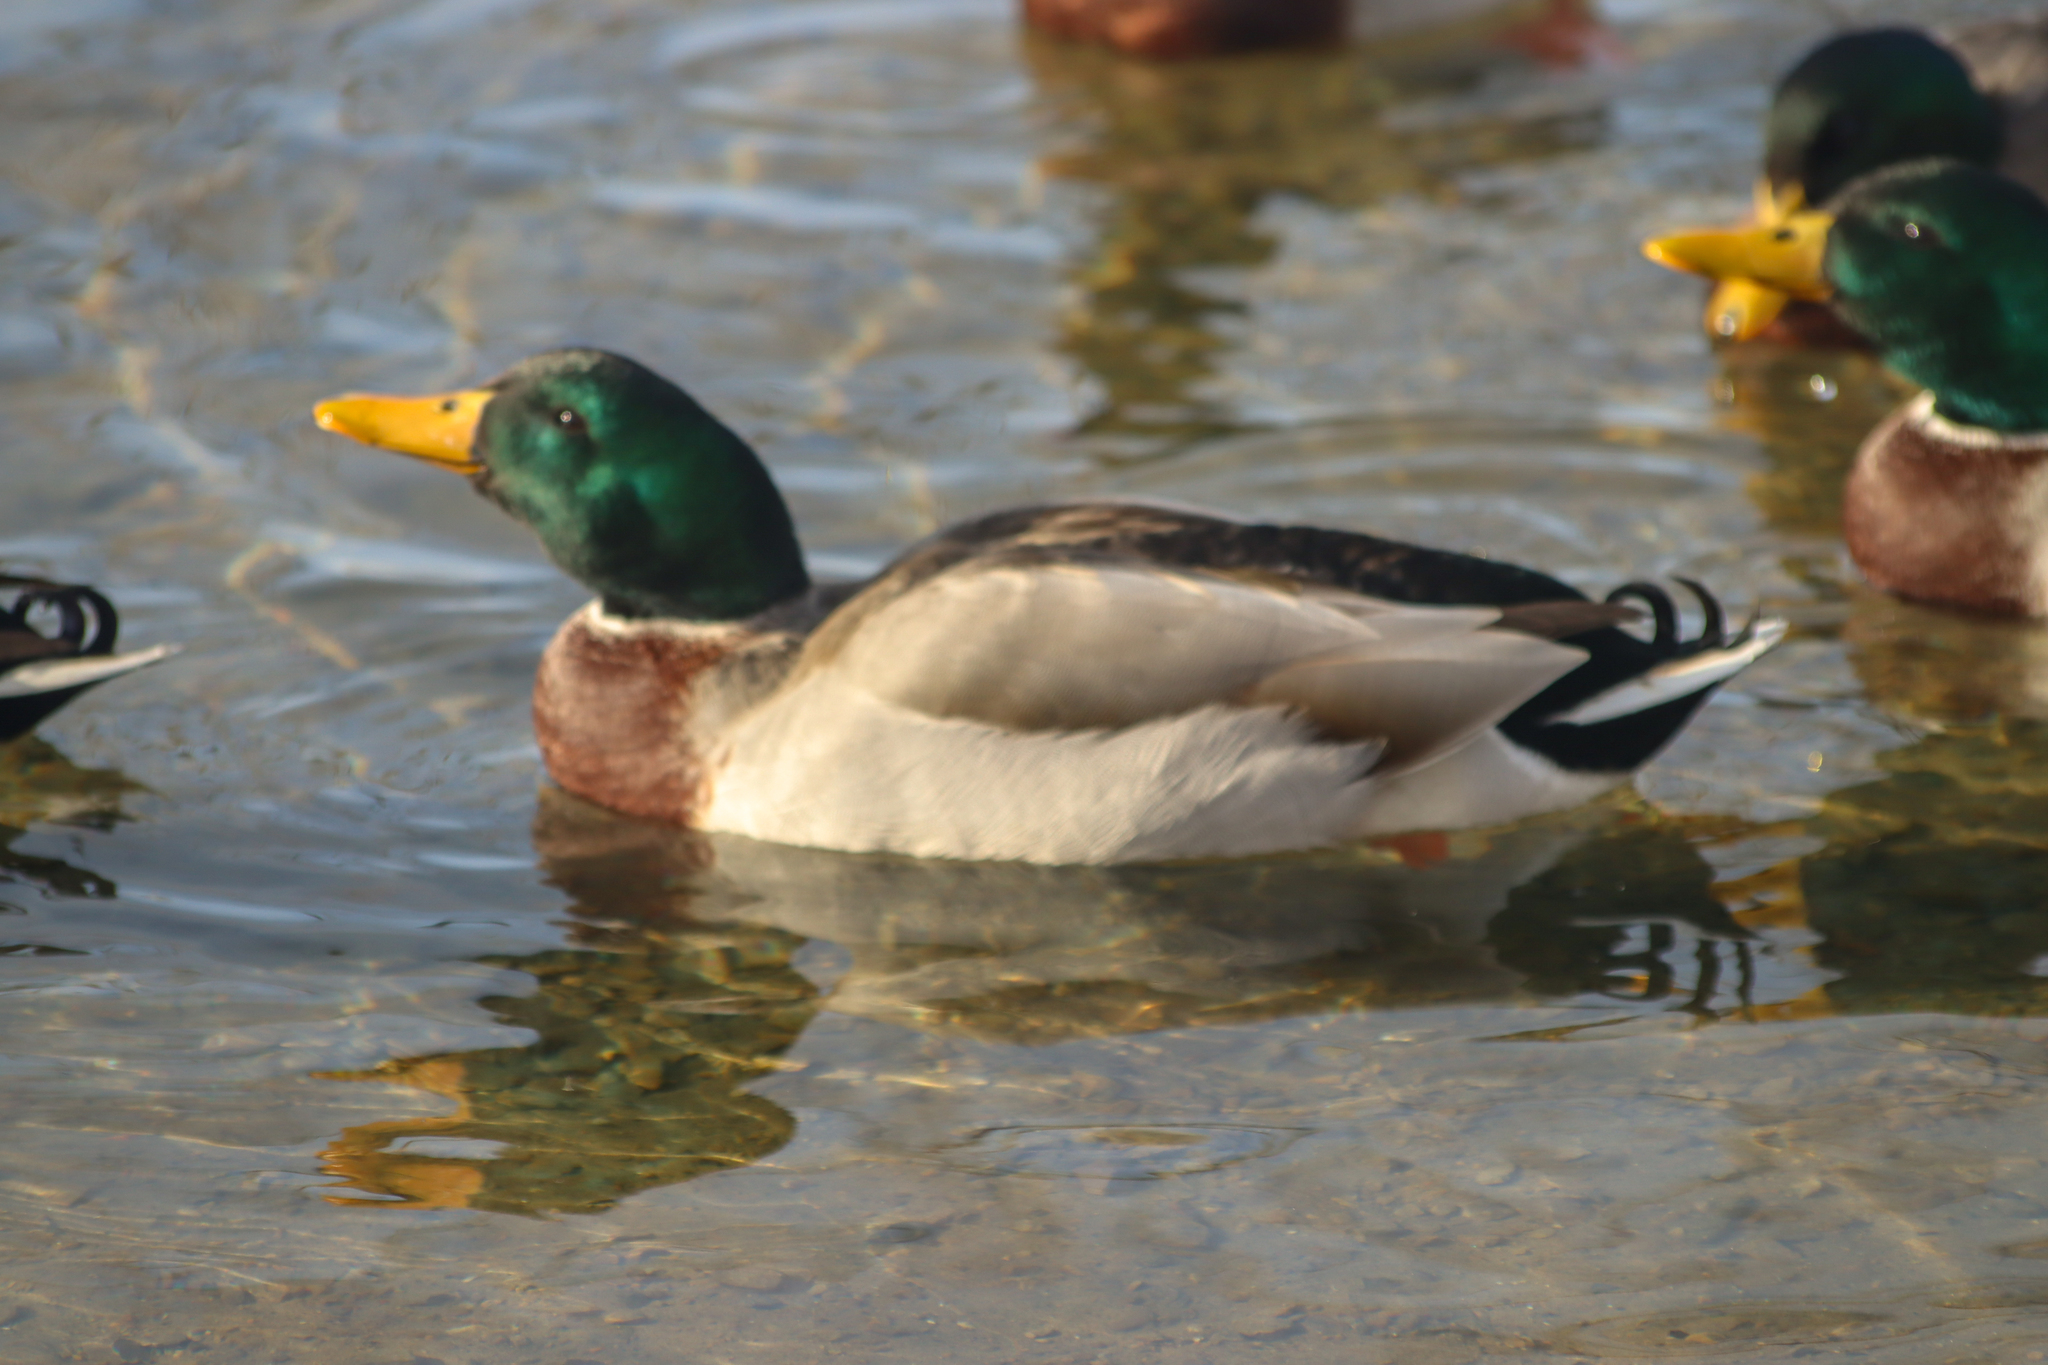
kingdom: Animalia
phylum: Chordata
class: Aves
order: Anseriformes
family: Anatidae
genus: Anas
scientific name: Anas platyrhynchos
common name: Mallard
